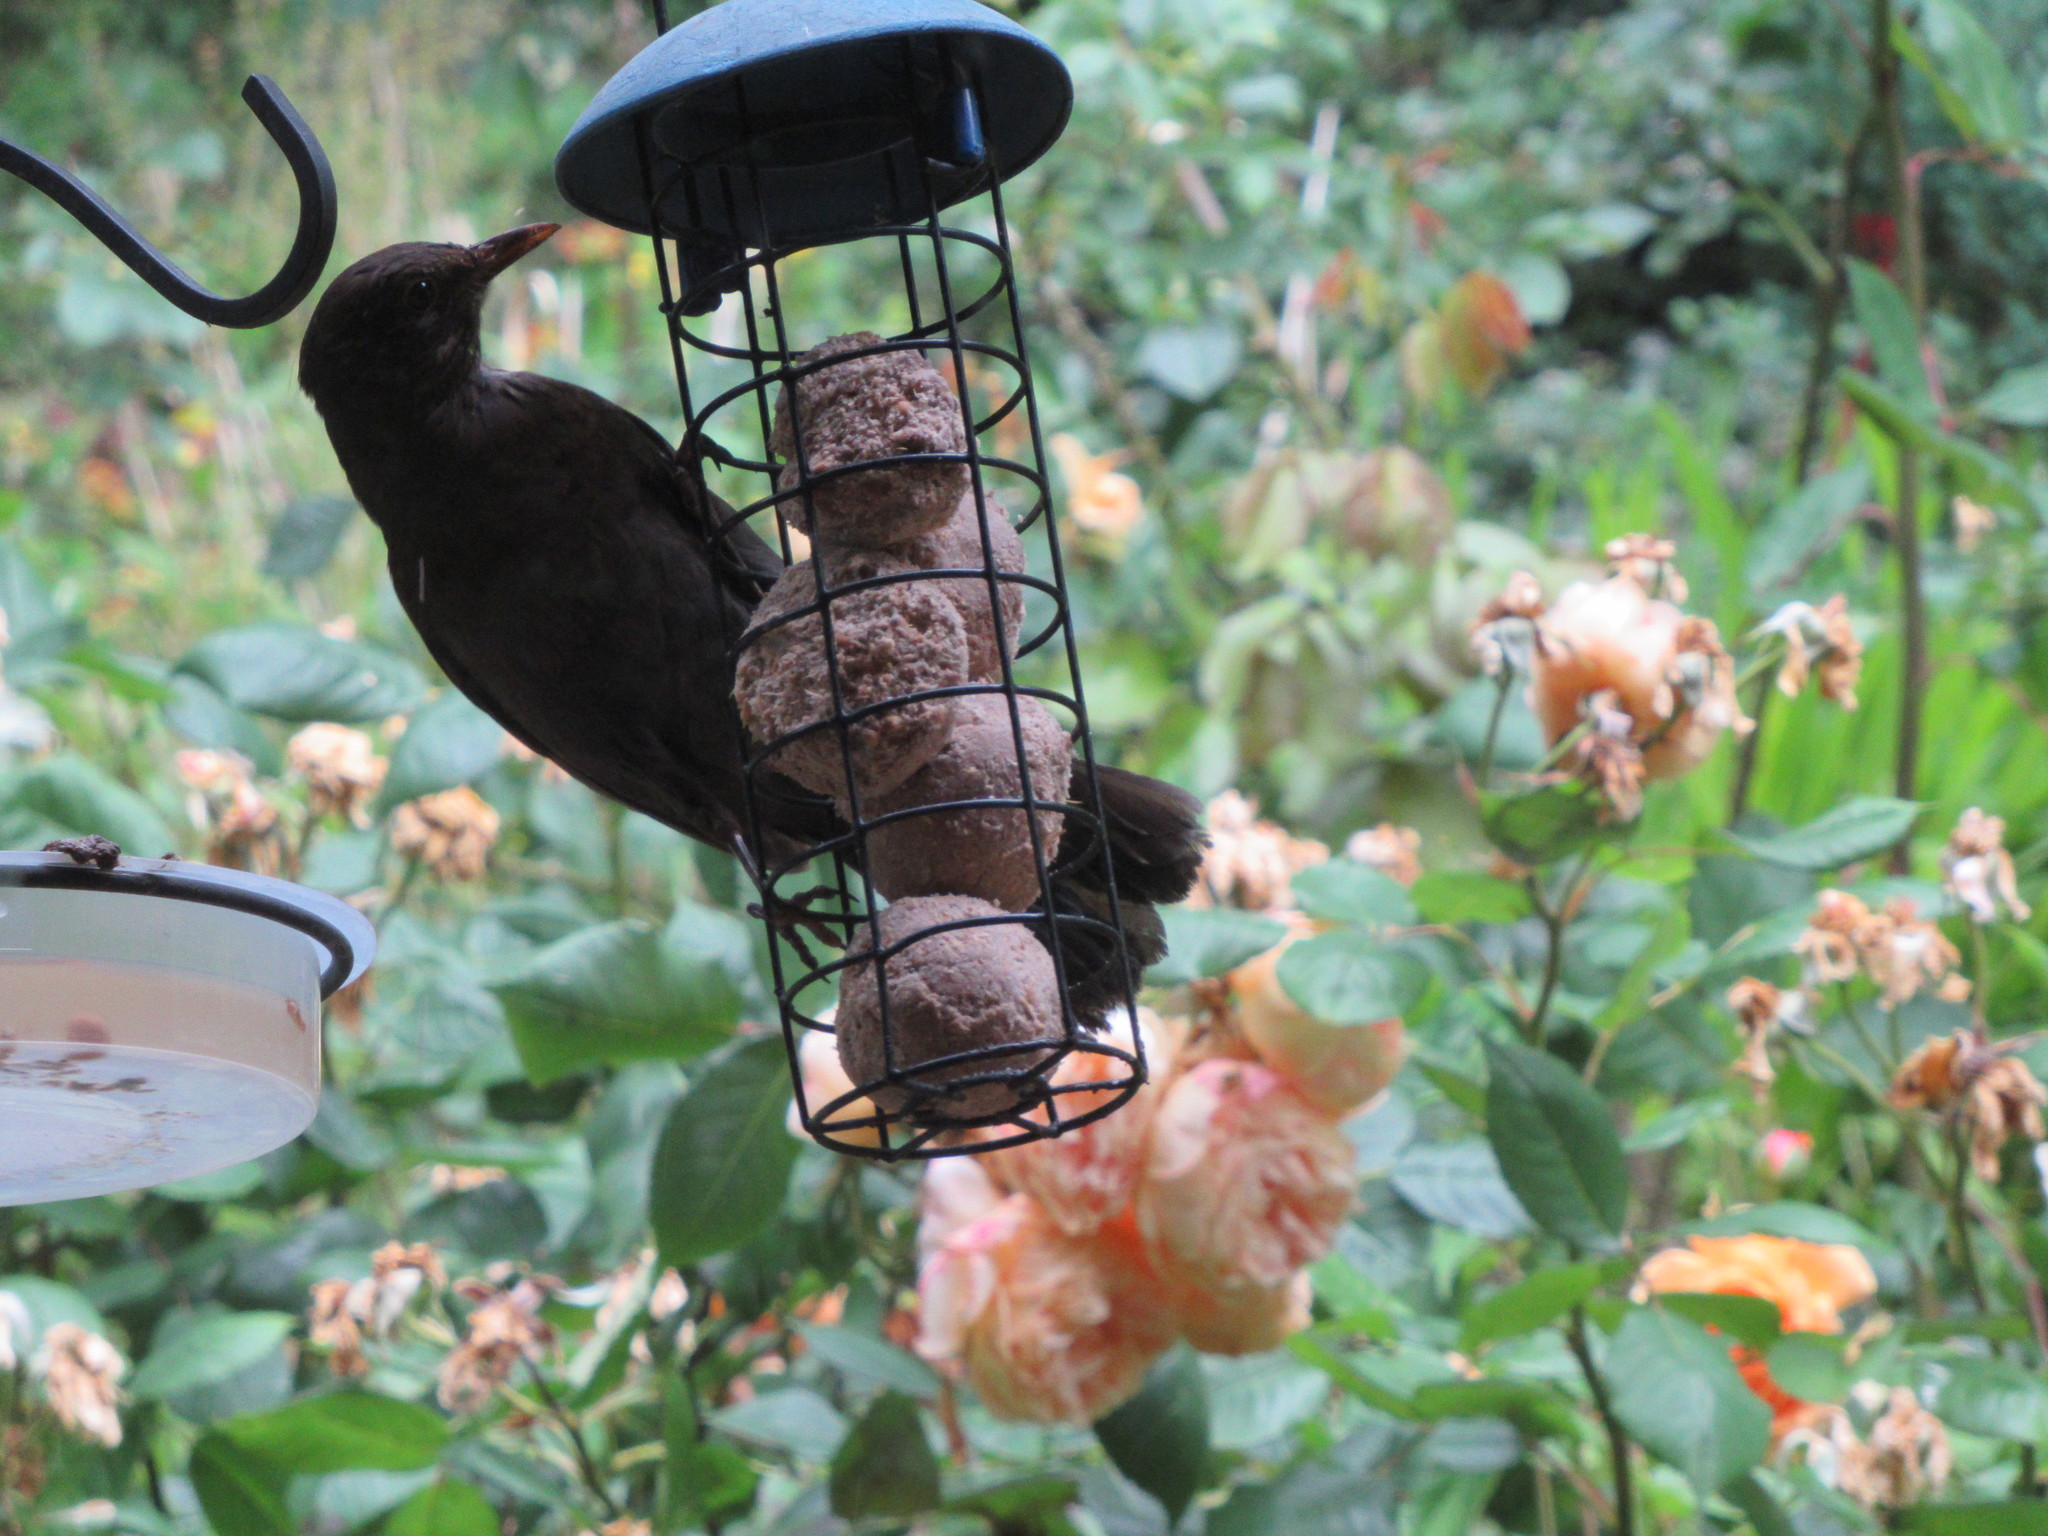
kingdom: Animalia
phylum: Chordata
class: Aves
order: Passeriformes
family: Turdidae
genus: Turdus
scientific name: Turdus merula
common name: Common blackbird
